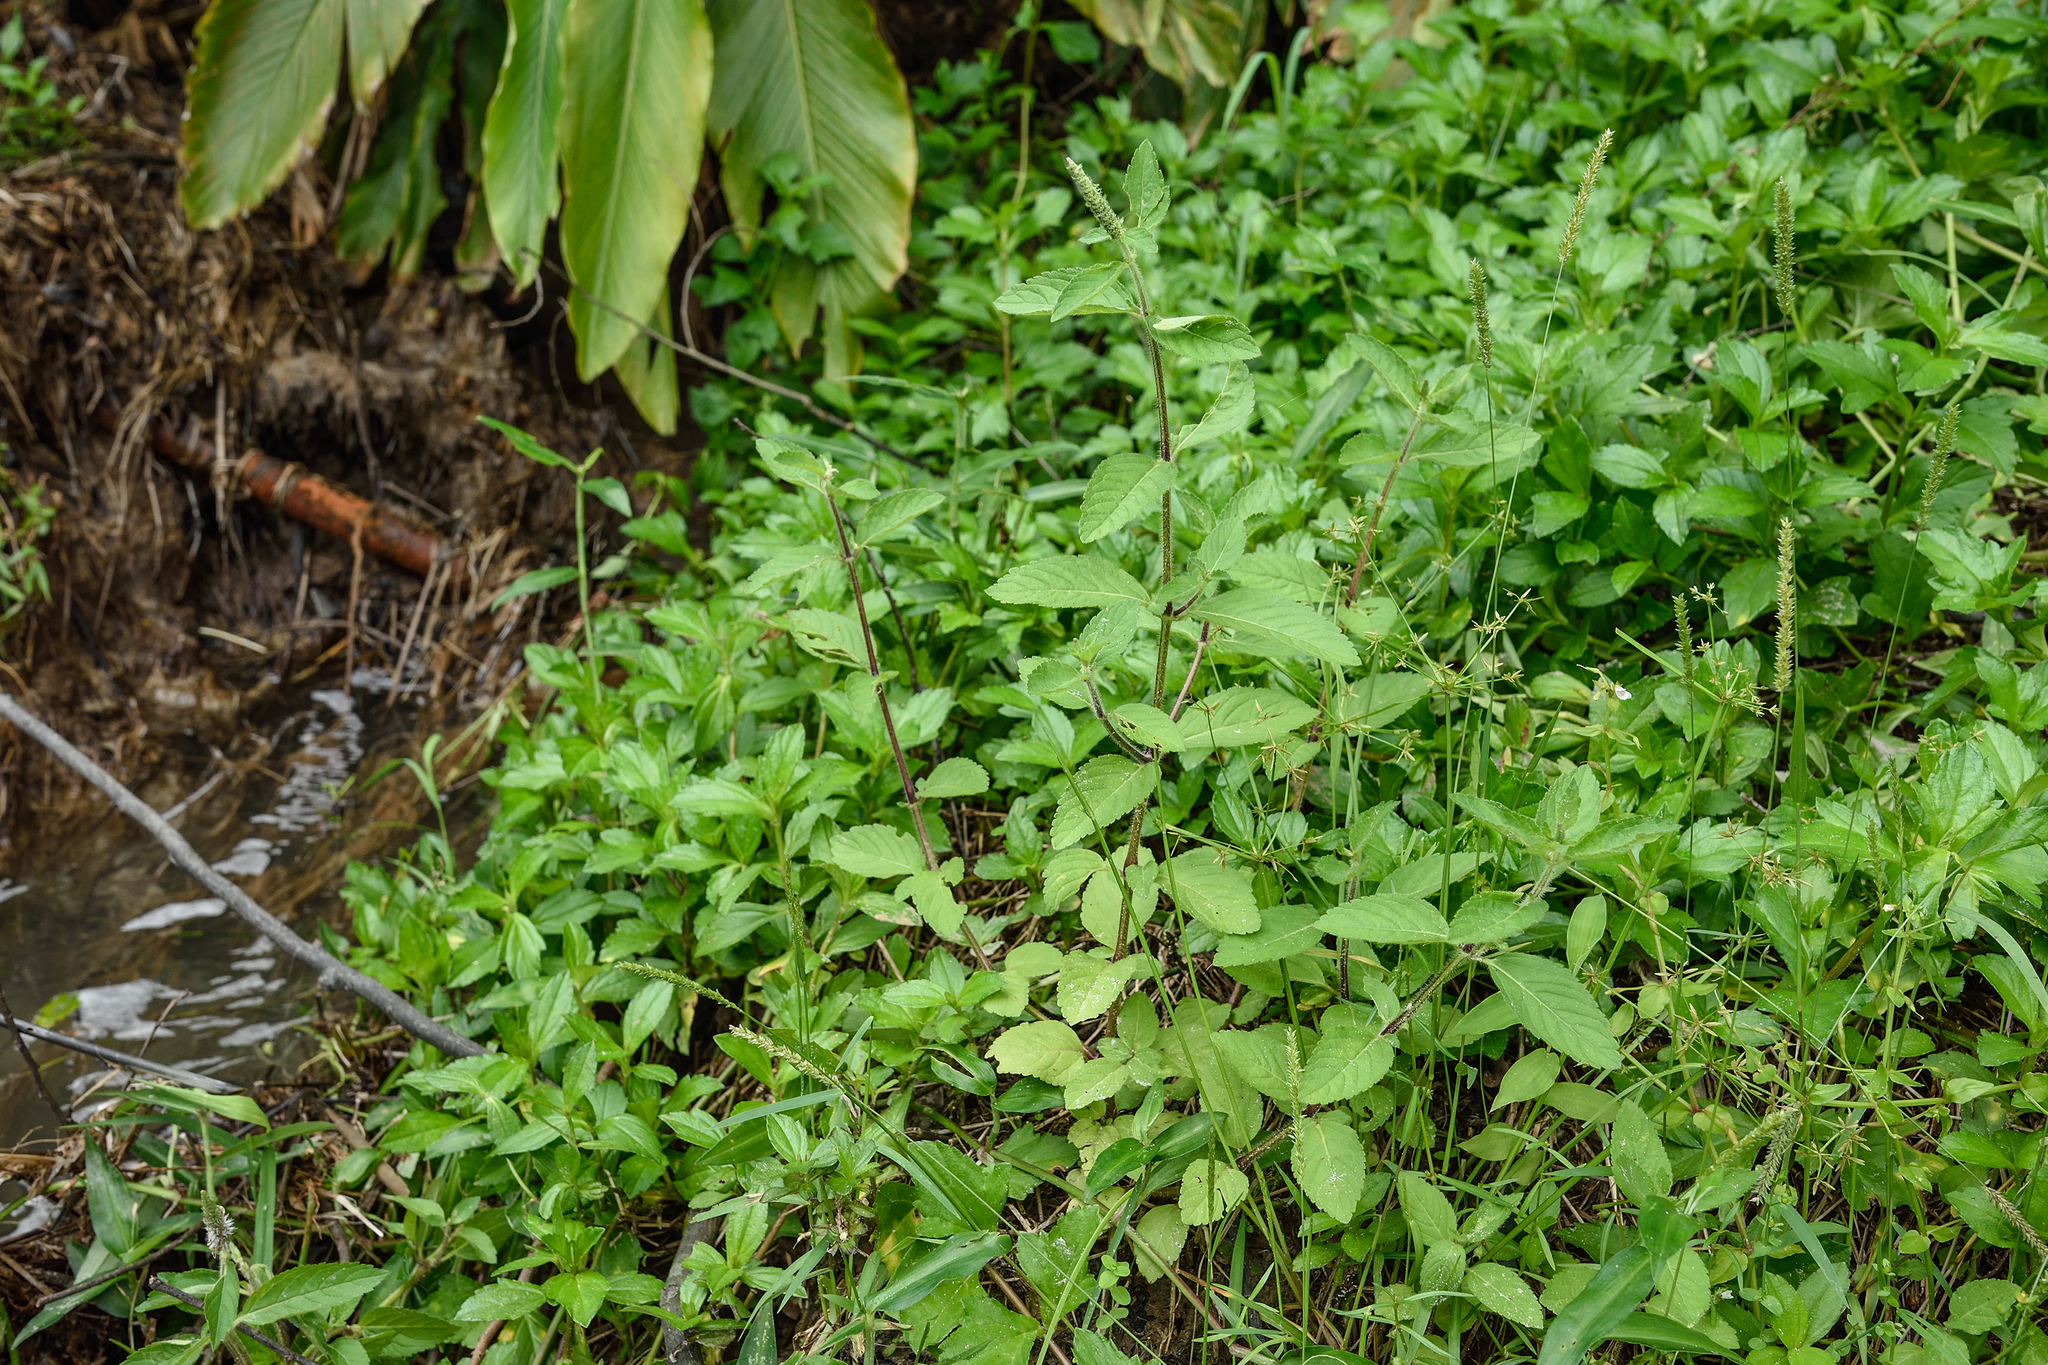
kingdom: Plantae
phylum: Tracheophyta
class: Magnoliopsida
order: Lamiales
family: Lamiaceae
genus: Pogostemon
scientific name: Pogostemon auricularius
